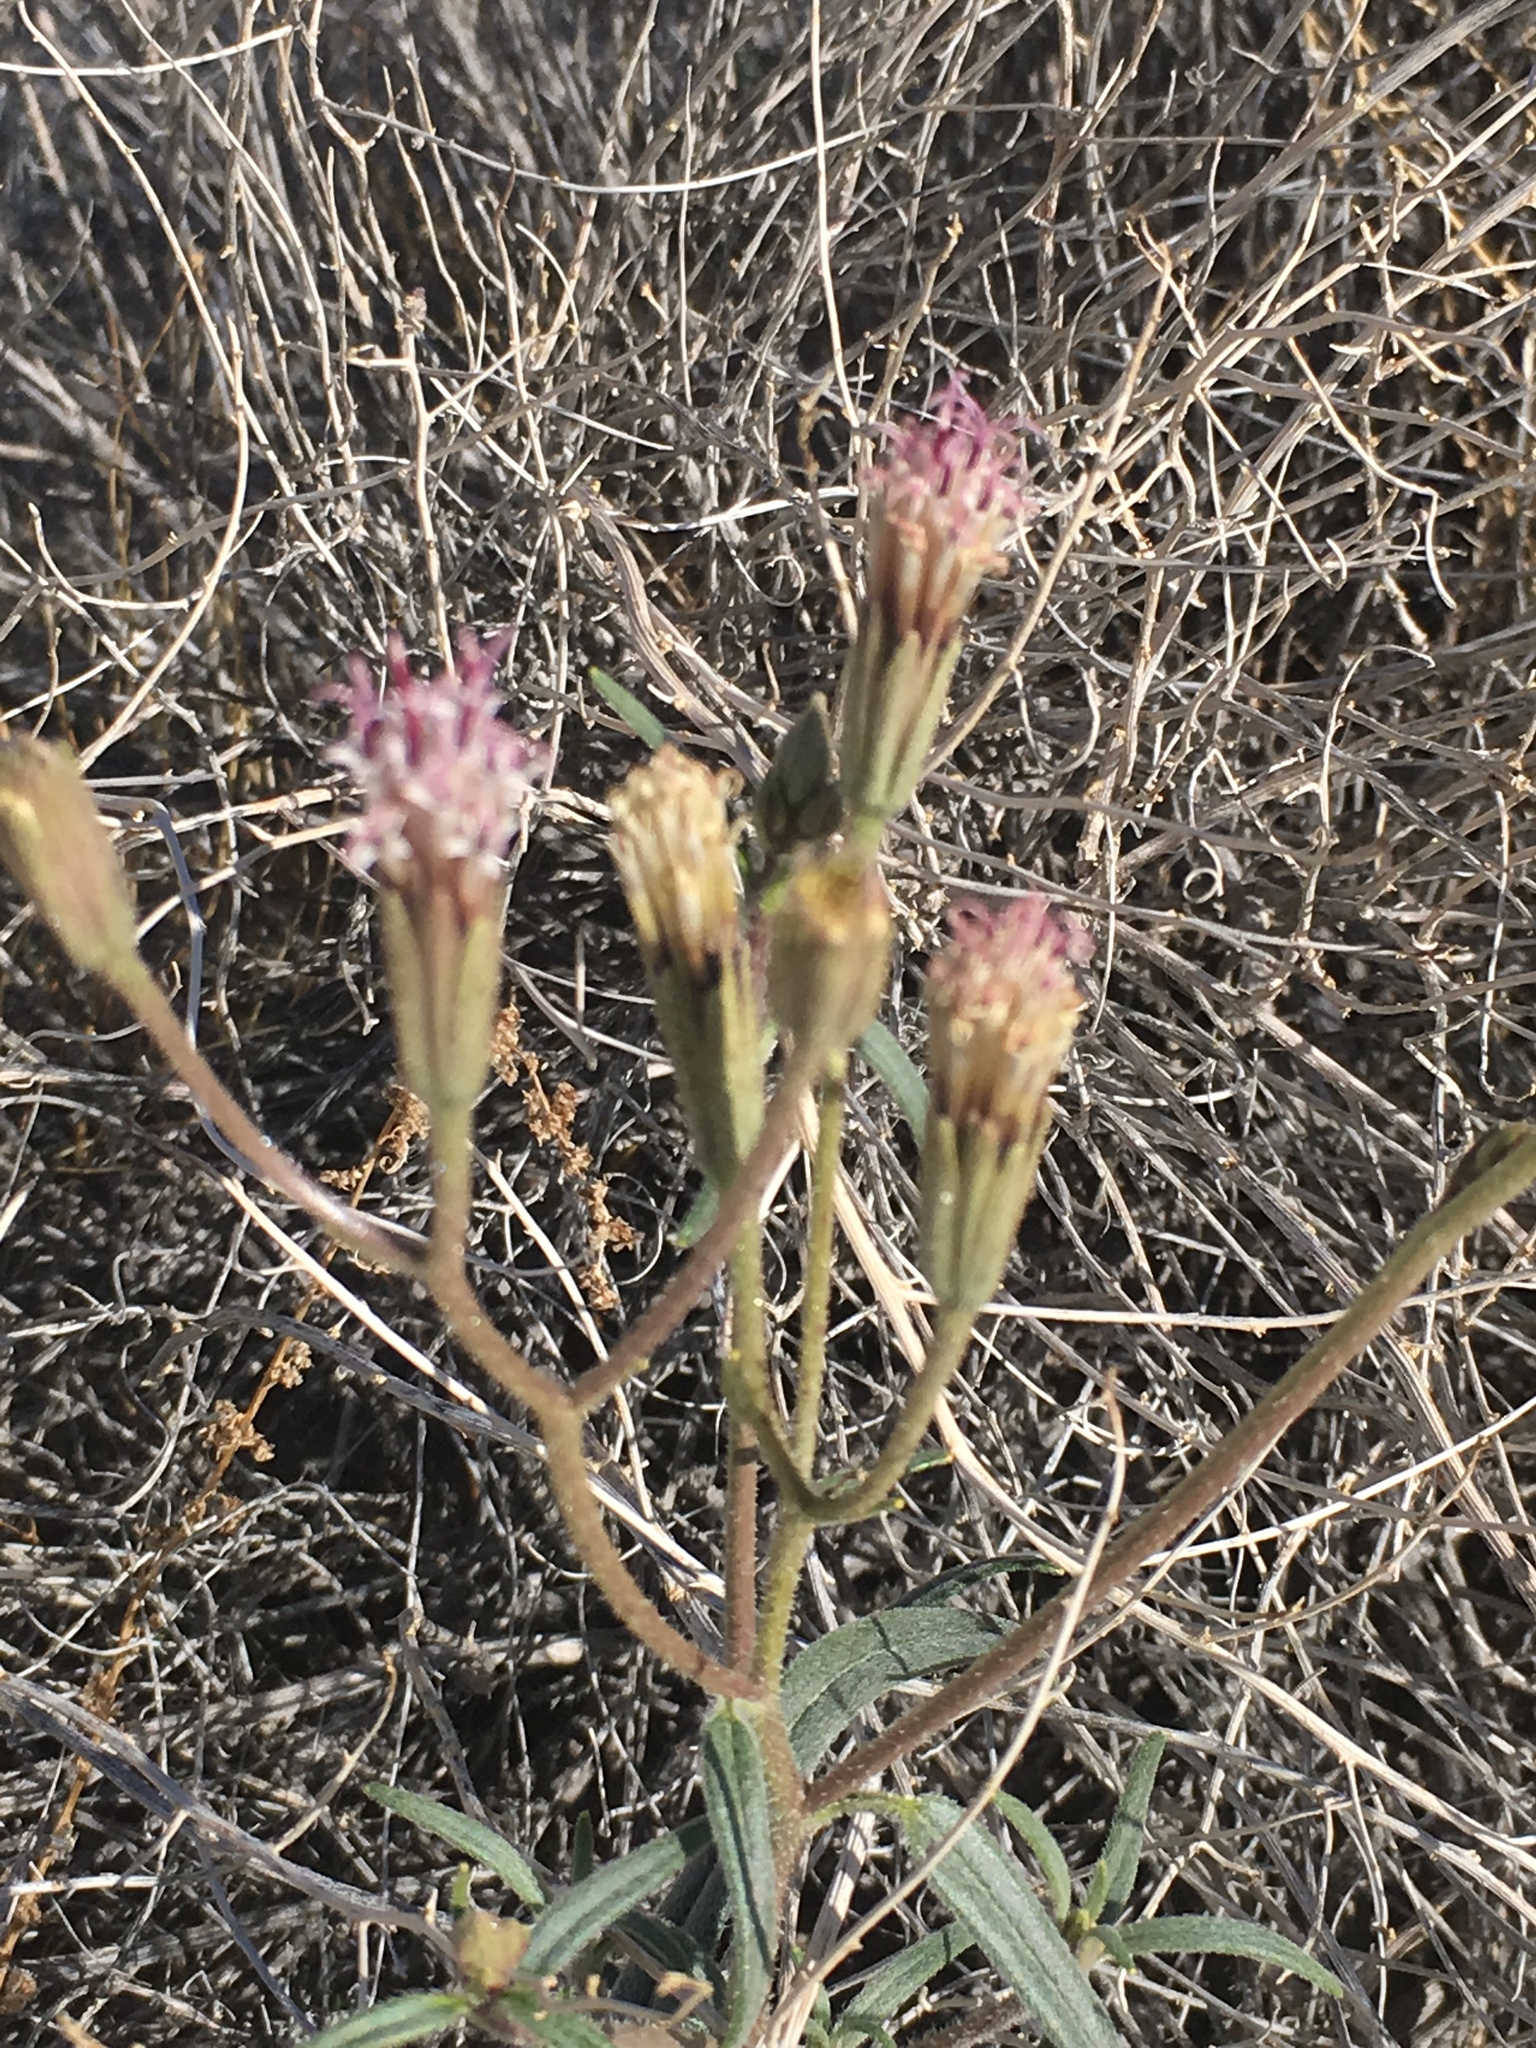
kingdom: Plantae
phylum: Tracheophyta
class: Magnoliopsida
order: Asterales
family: Asteraceae
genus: Palafoxia
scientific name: Palafoxia arida
